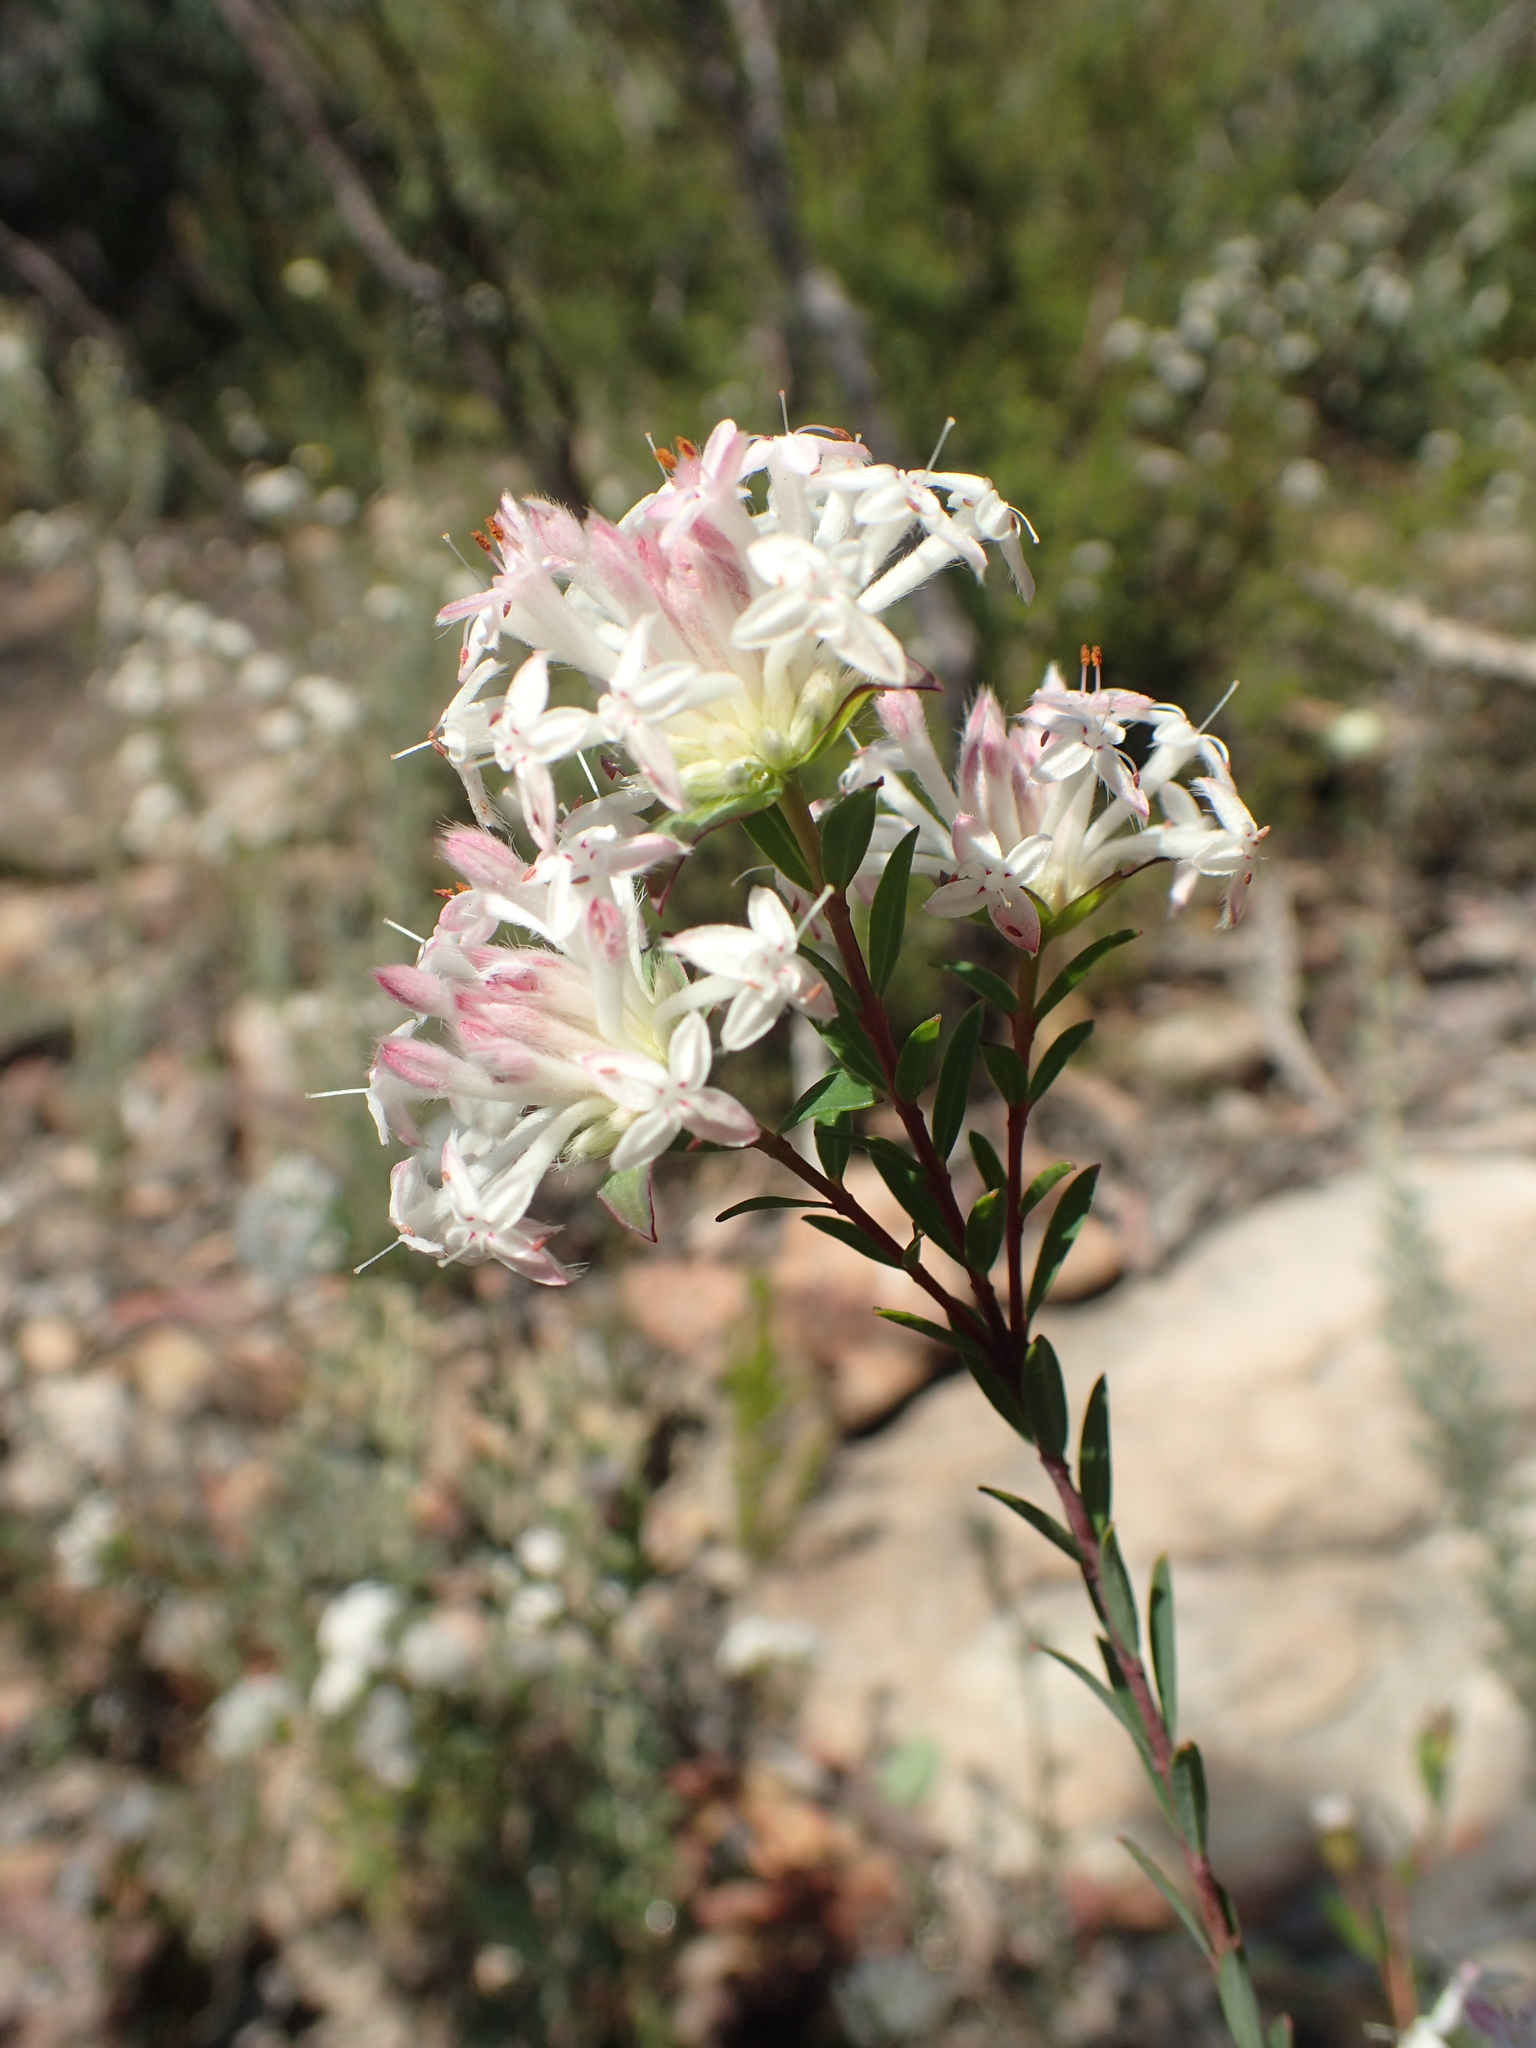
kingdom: Plantae
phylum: Tracheophyta
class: Magnoliopsida
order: Malvales
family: Thymelaeaceae
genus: Pimelea
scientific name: Pimelea linifolia
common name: Queen-of-the-bush
